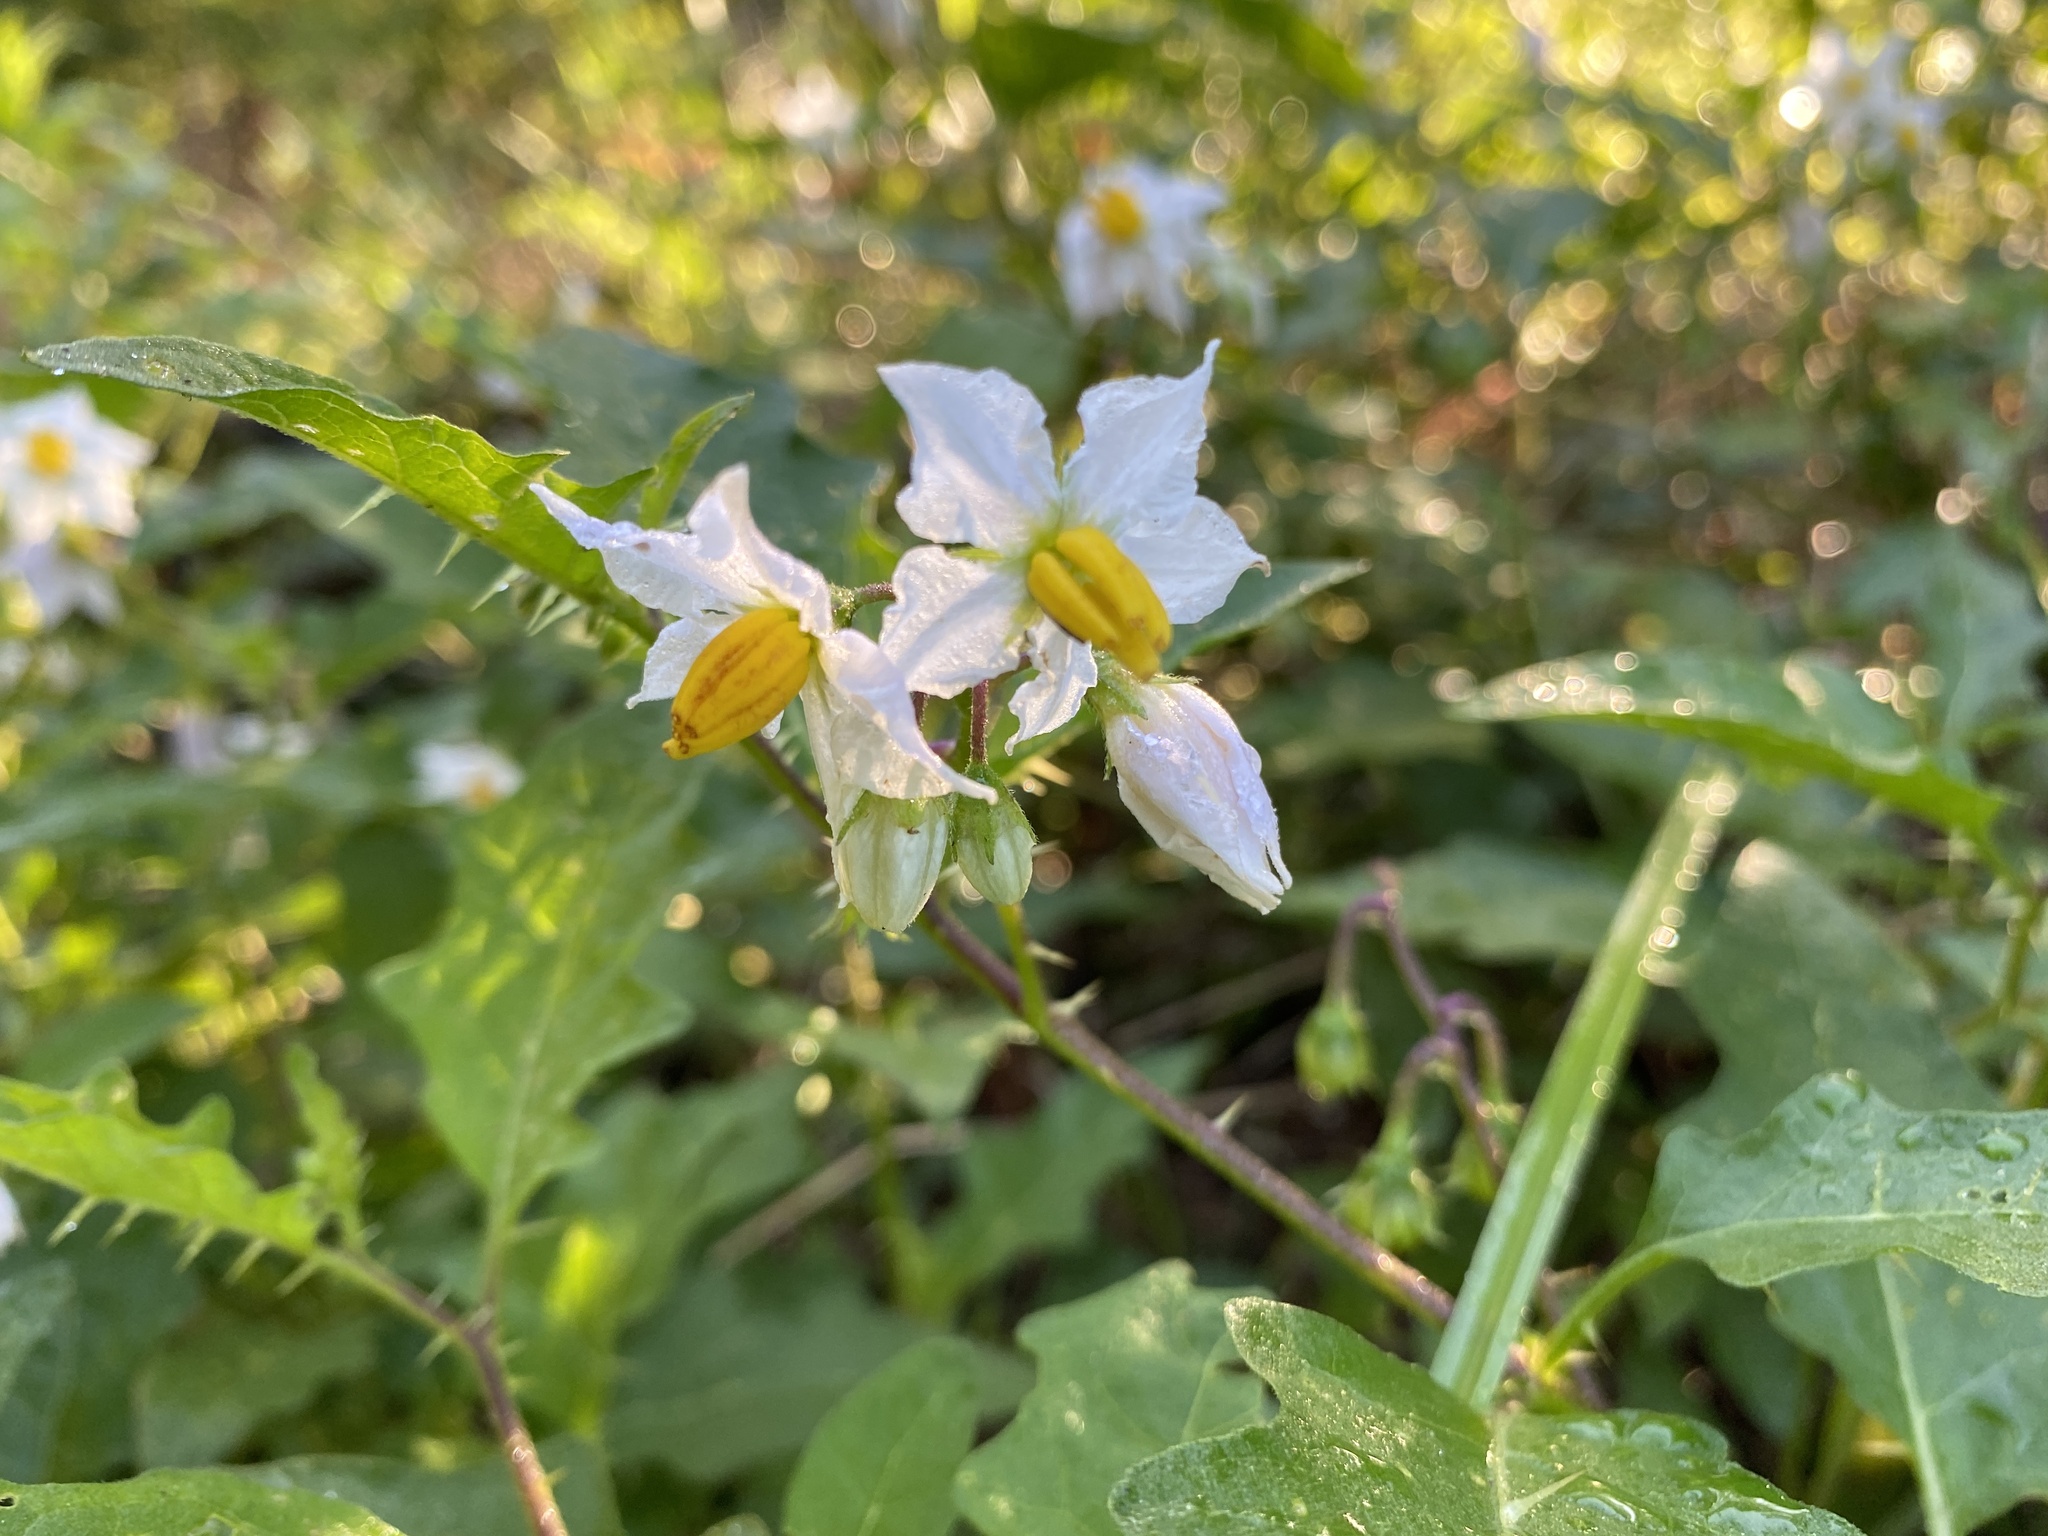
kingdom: Plantae
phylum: Tracheophyta
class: Magnoliopsida
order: Solanales
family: Solanaceae
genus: Solanum
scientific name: Solanum carolinense
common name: Horse-nettle
